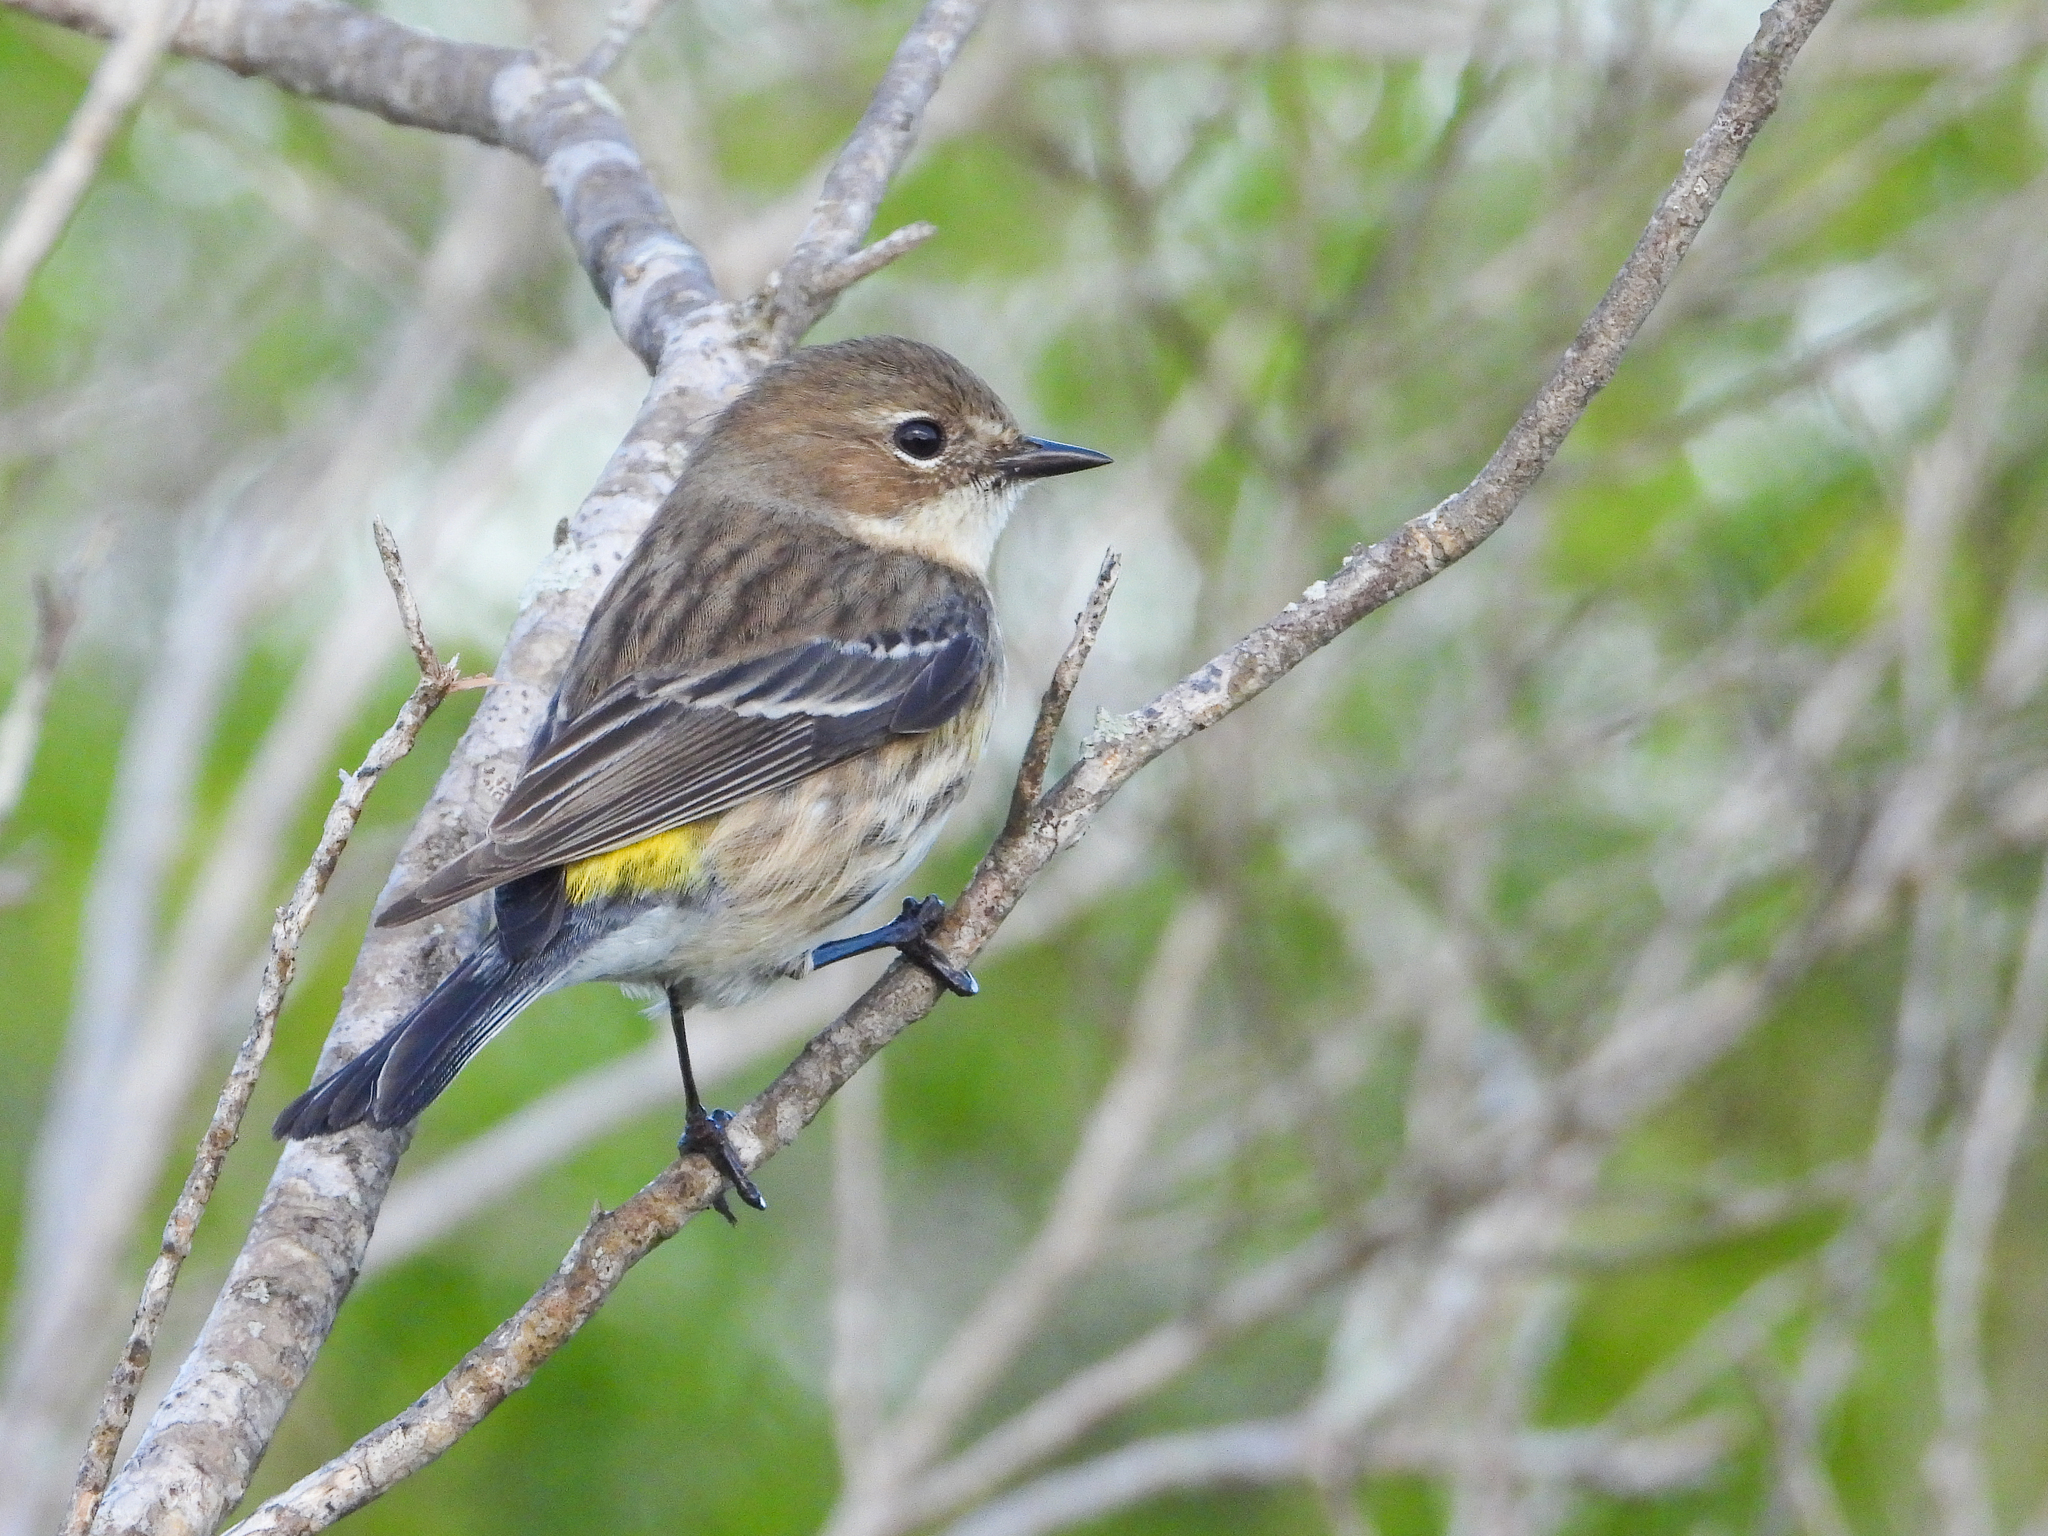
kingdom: Animalia
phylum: Chordata
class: Aves
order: Passeriformes
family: Parulidae
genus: Setophaga
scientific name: Setophaga coronata
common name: Myrtle warbler
